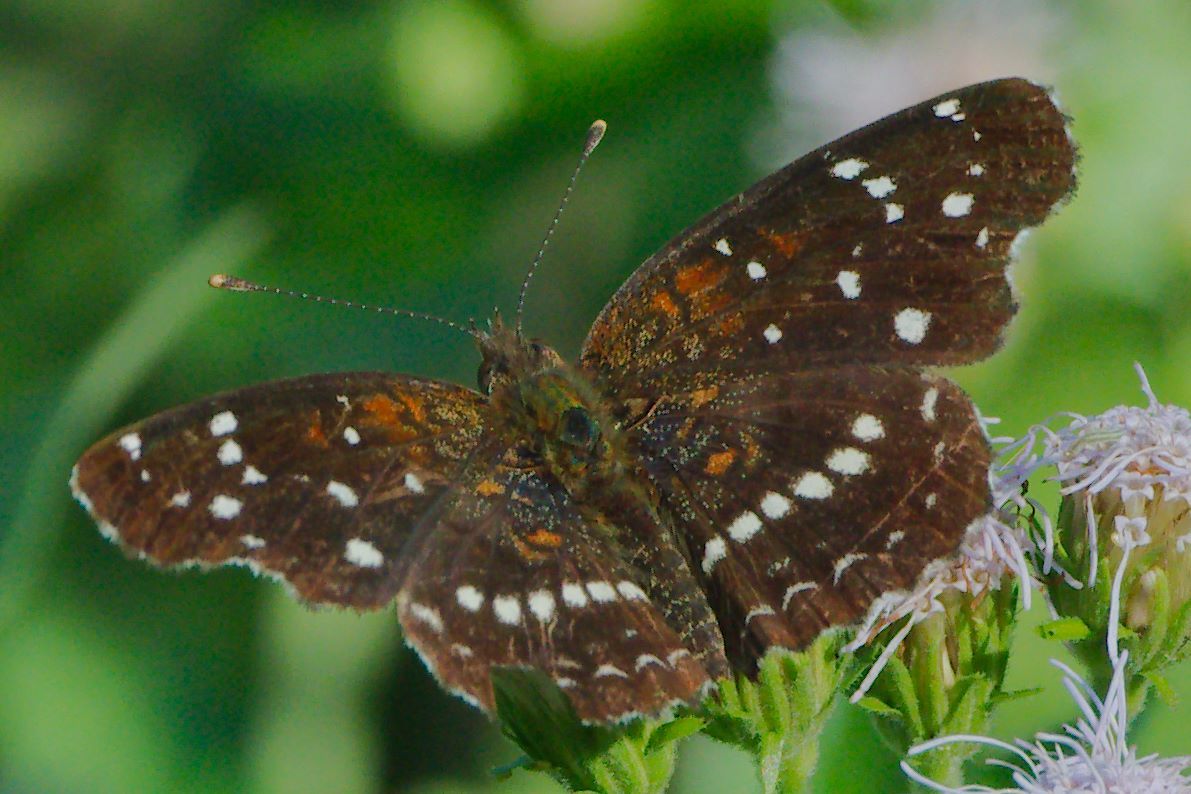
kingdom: Animalia
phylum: Arthropoda
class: Insecta
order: Lepidoptera
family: Nymphalidae
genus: Anthanassa
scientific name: Anthanassa texana
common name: Texan crescent
